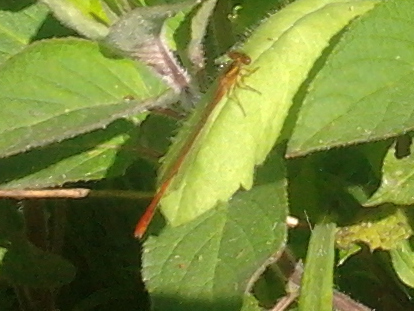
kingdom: Animalia
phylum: Arthropoda
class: Insecta
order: Odonata
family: Coenagrionidae
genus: Xanthocnemis
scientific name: Xanthocnemis zealandica
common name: Common redcoat damselfly
